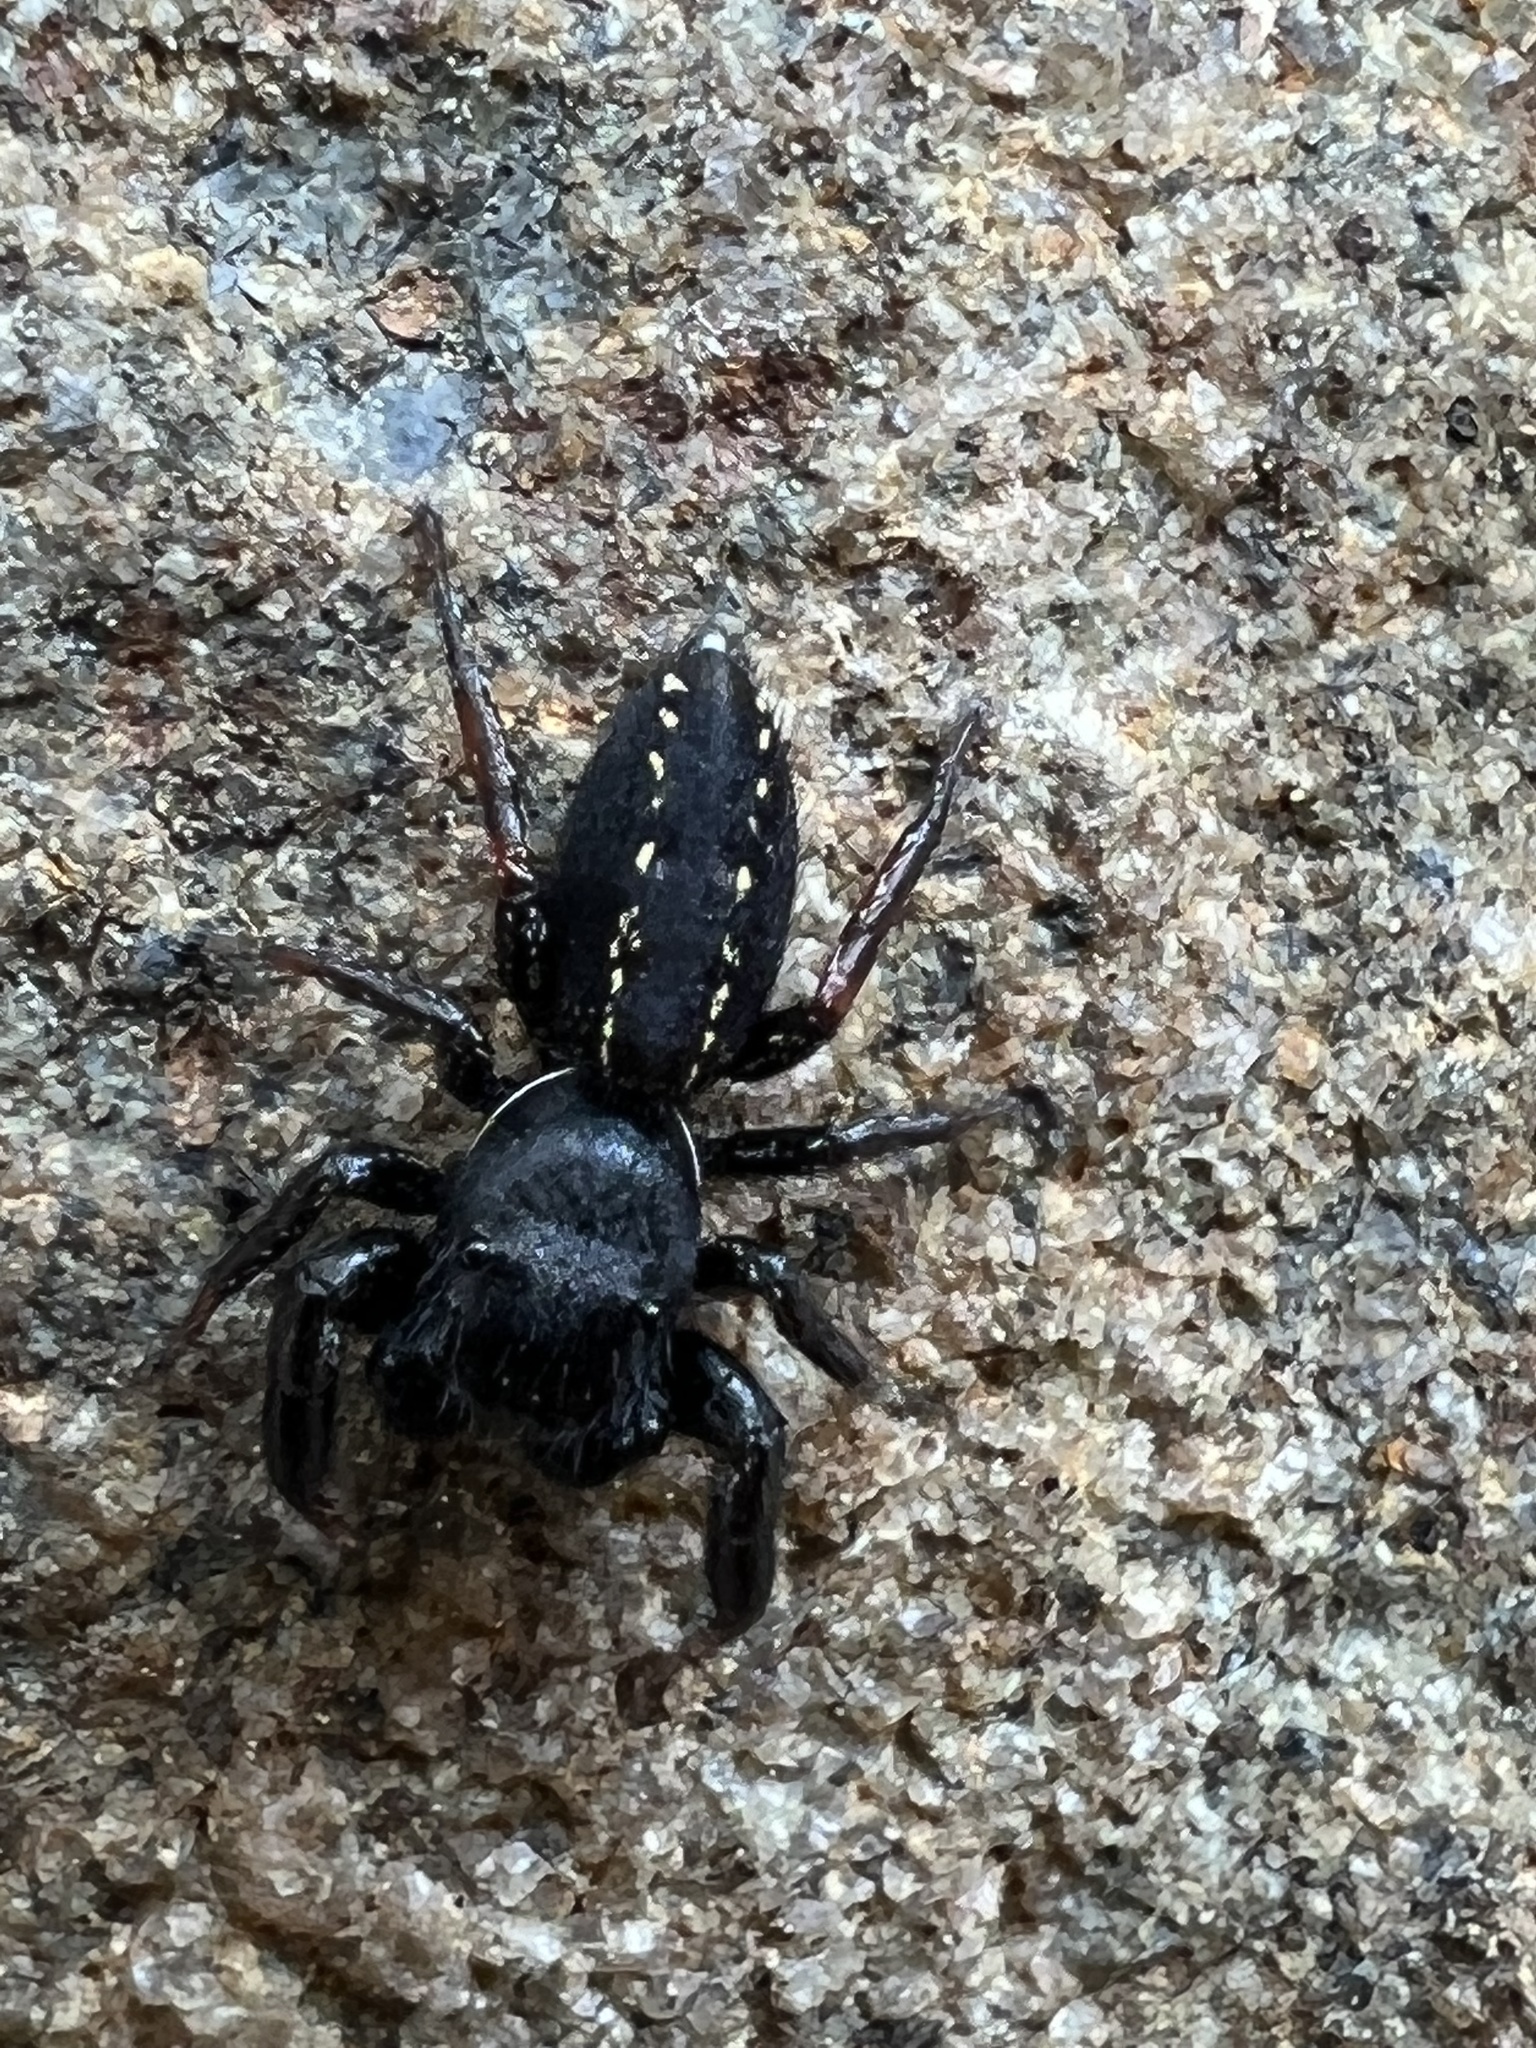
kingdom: Animalia
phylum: Arthropoda
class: Arachnida
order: Araneae
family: Salticidae
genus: Metacyrba
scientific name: Metacyrba taeniola
